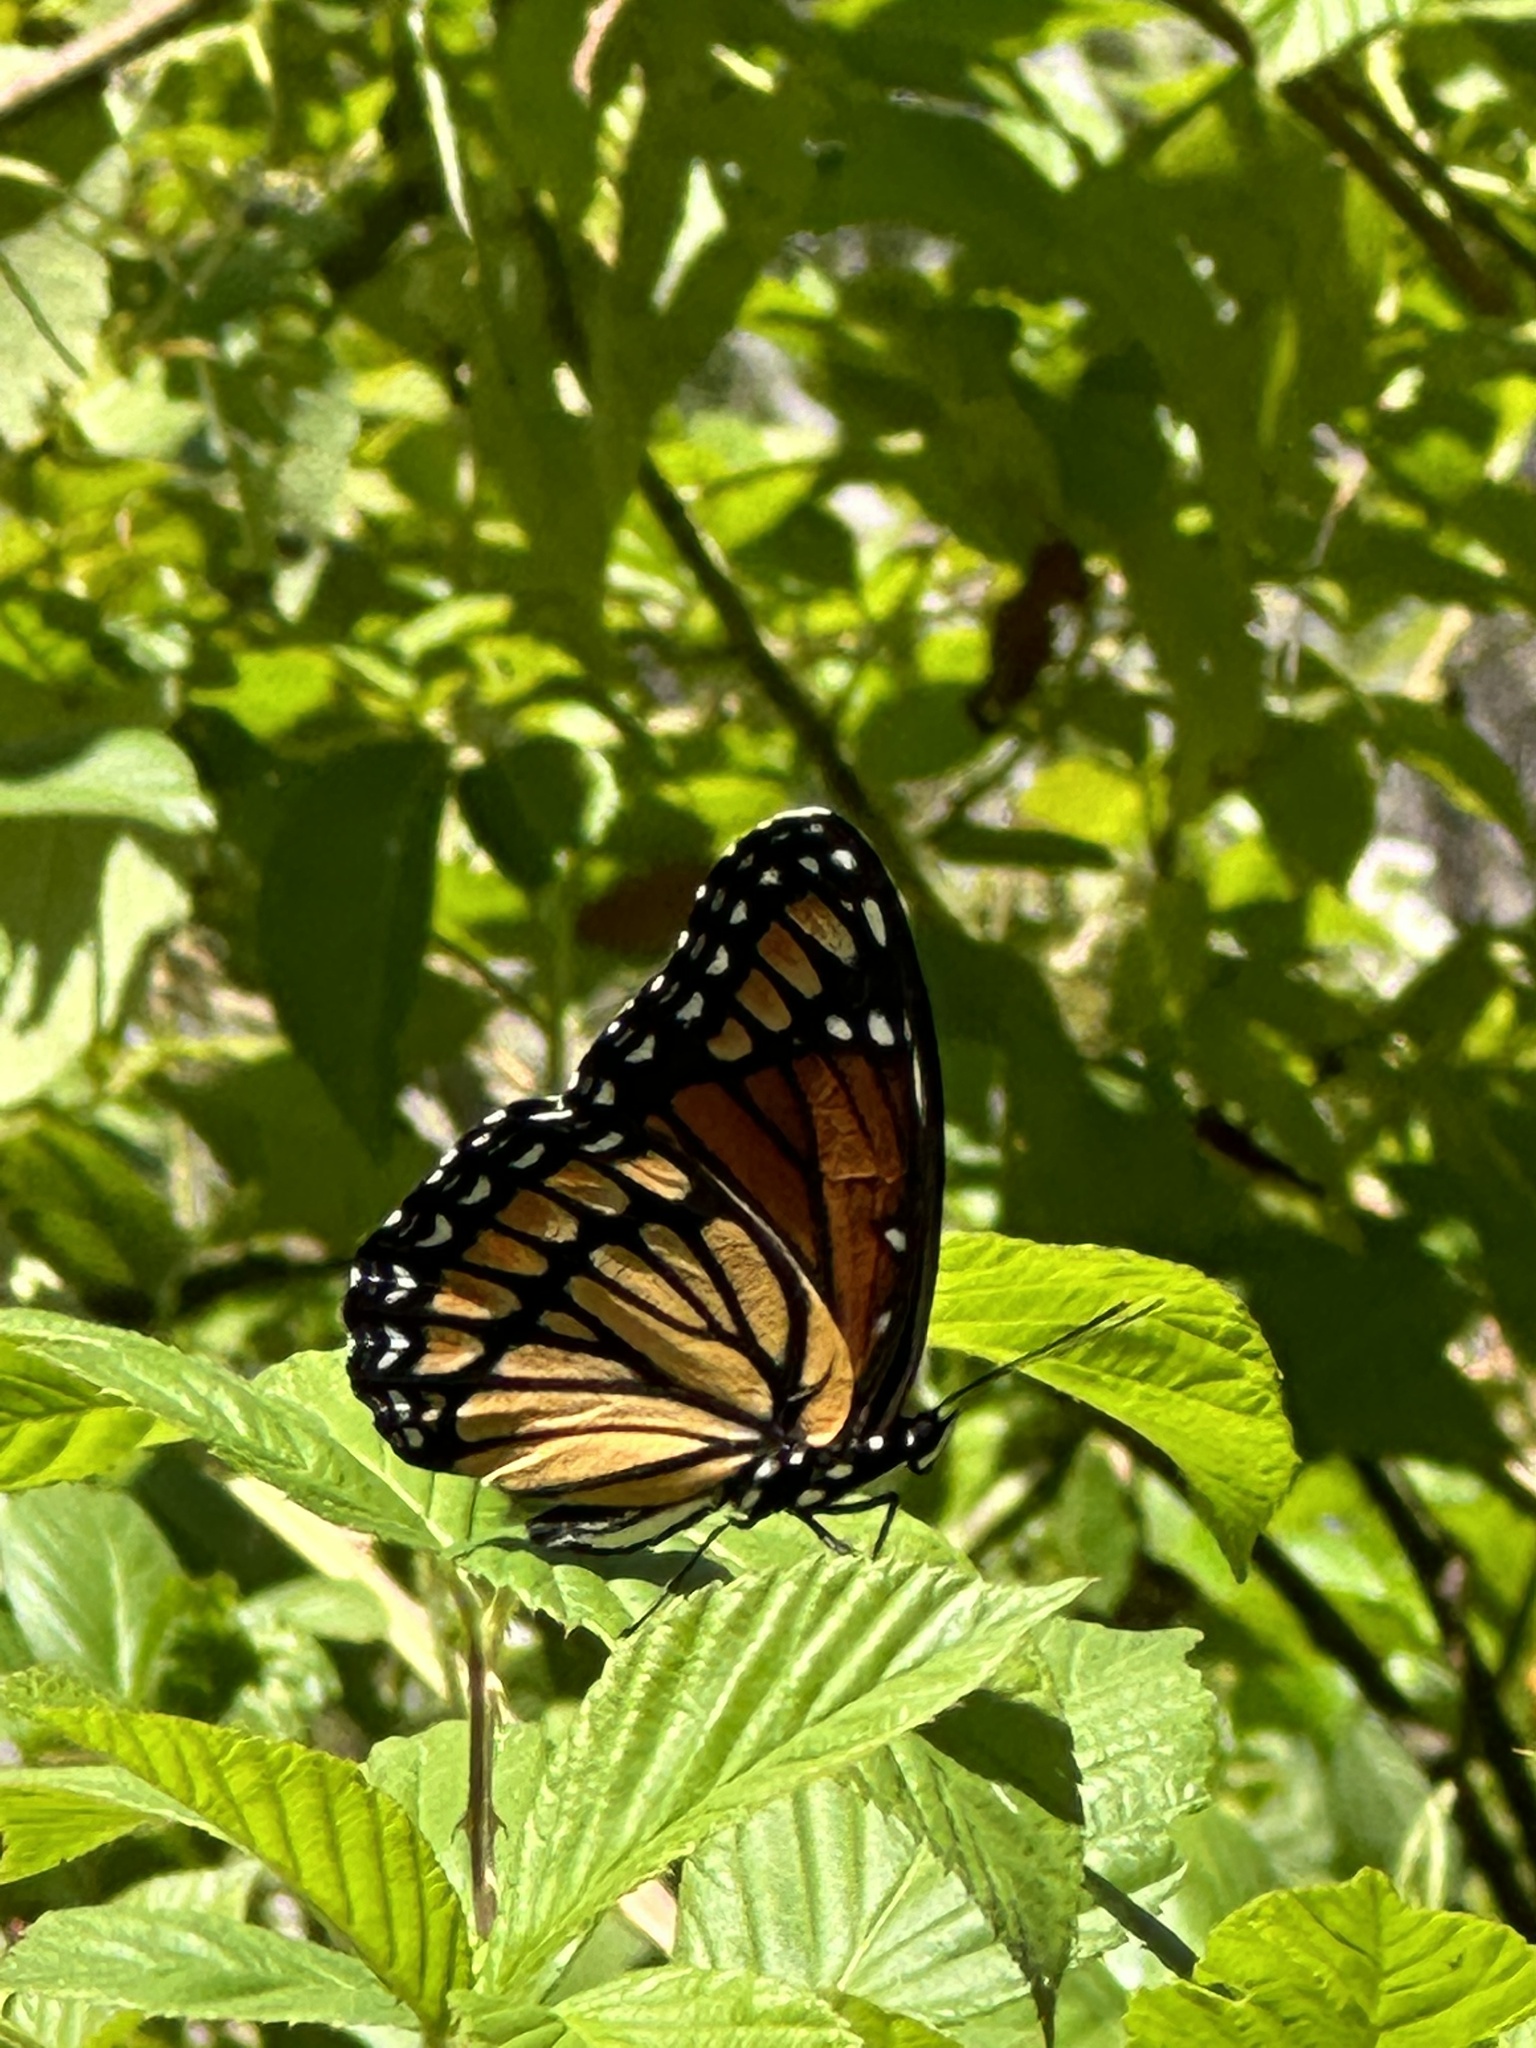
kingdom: Animalia
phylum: Arthropoda
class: Insecta
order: Lepidoptera
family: Nymphalidae
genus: Limenitis
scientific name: Limenitis archippus
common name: Viceroy
